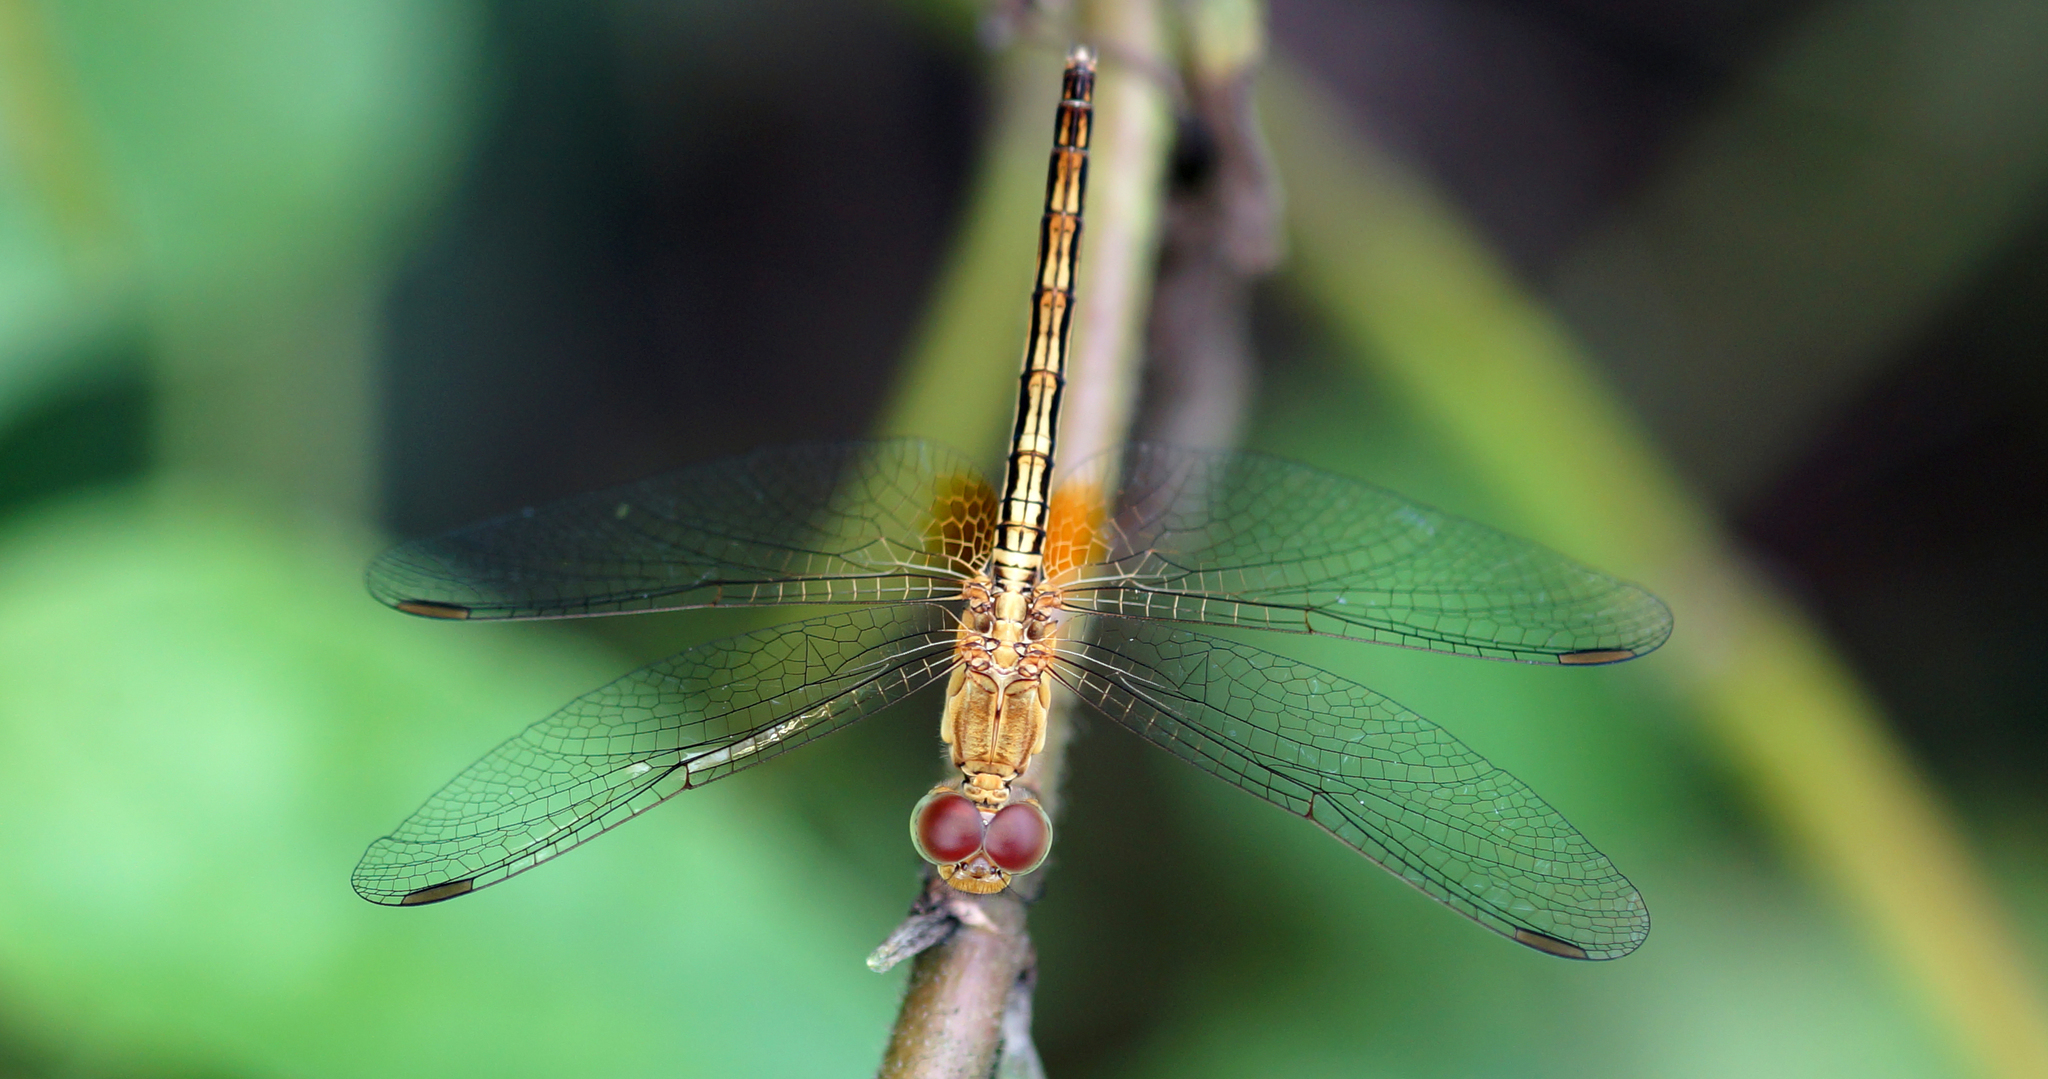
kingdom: Animalia
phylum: Arthropoda
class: Insecta
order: Odonata
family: Libellulidae
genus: Neurothemis
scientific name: Neurothemis intermedia
